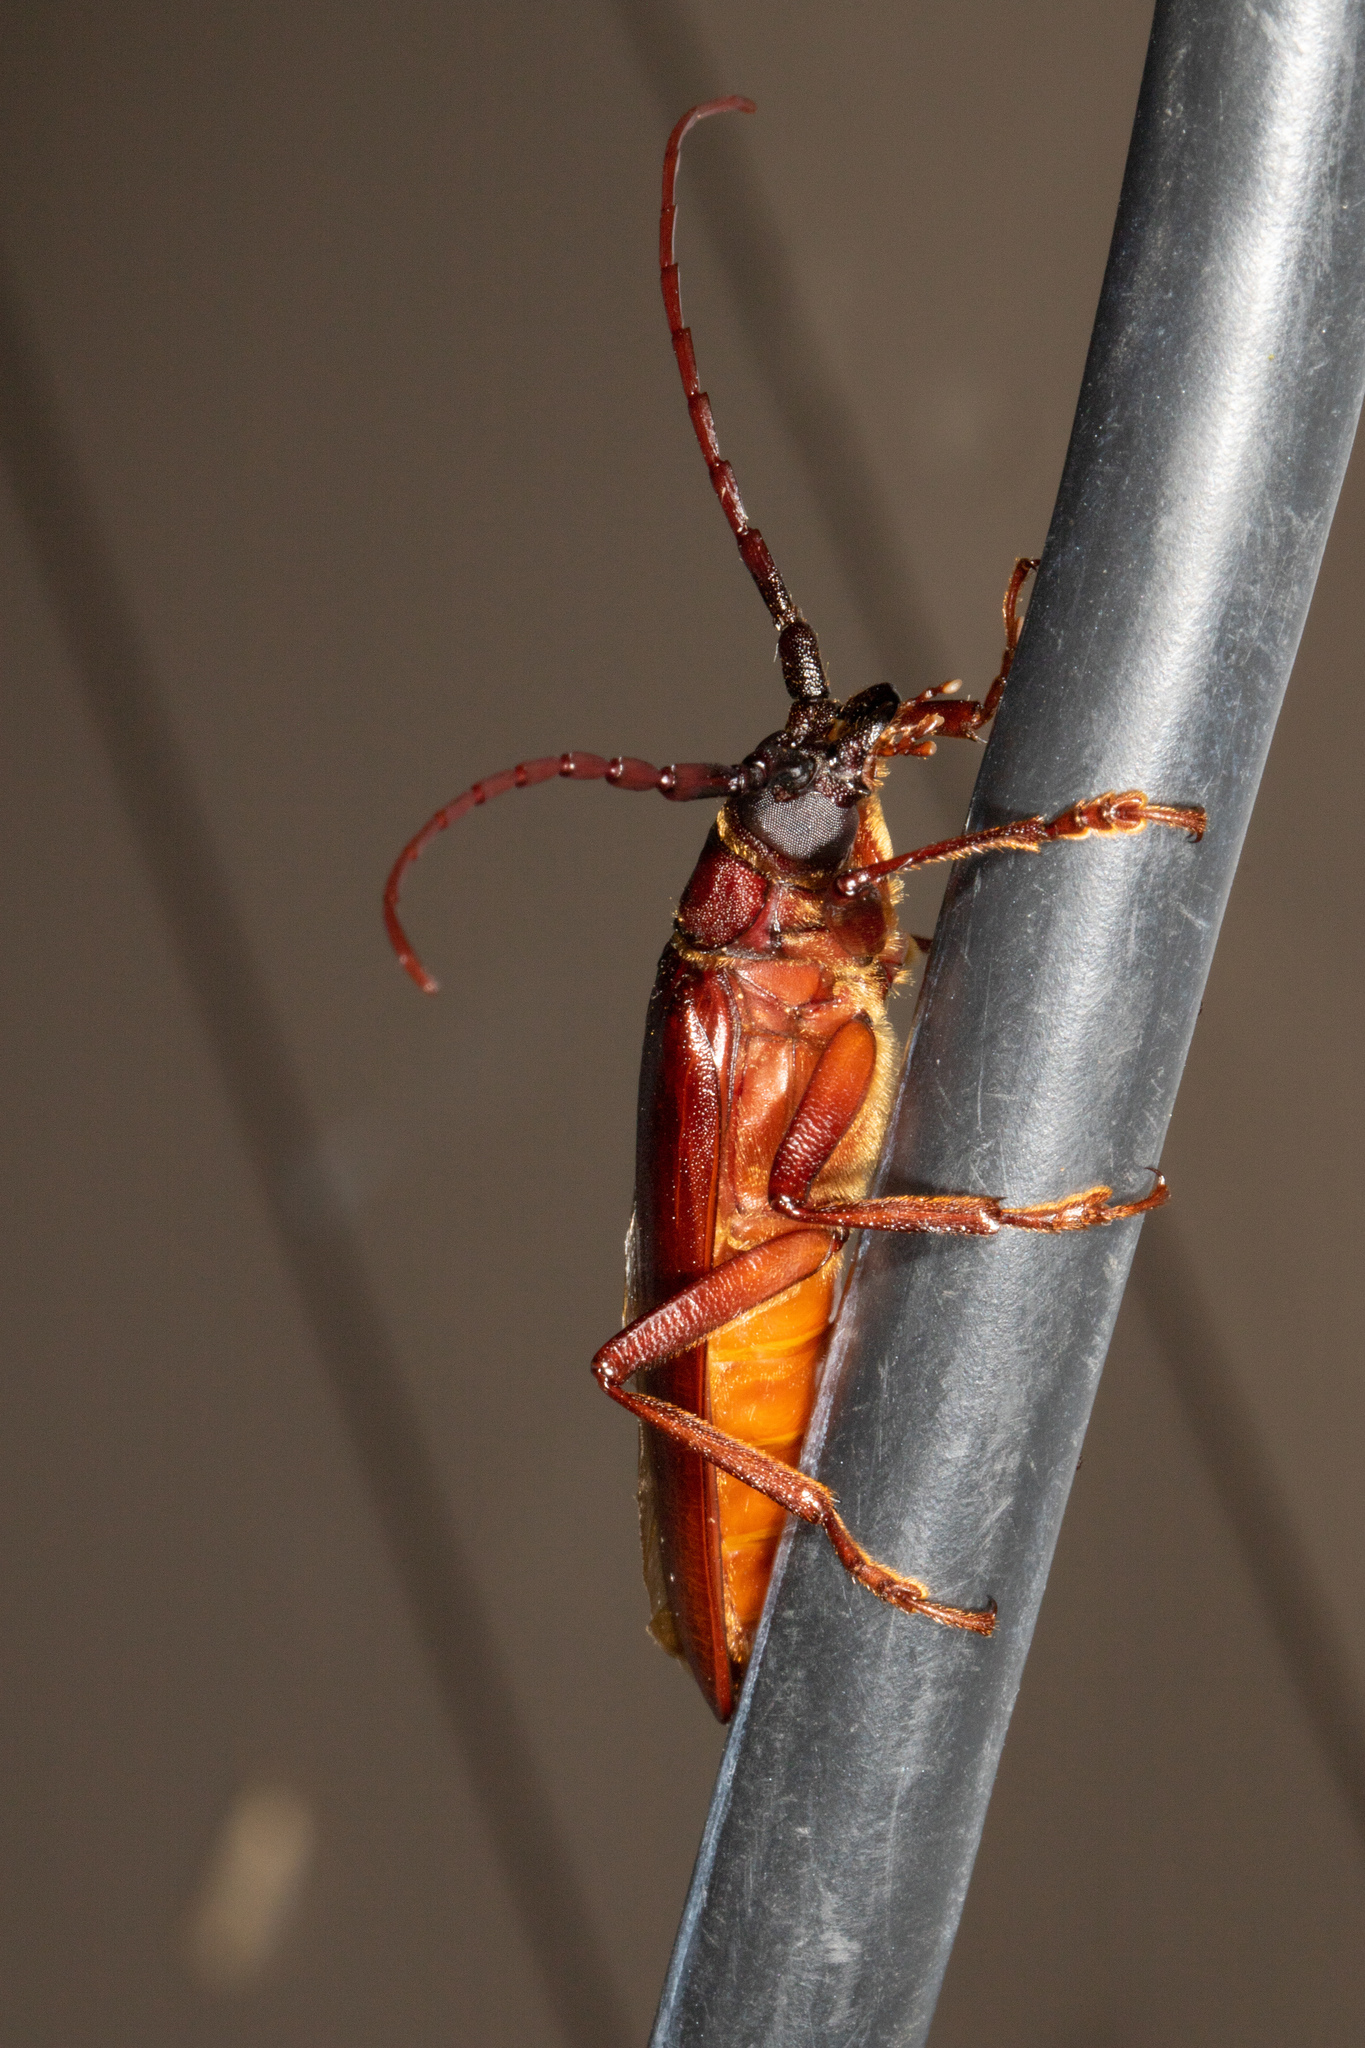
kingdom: Animalia
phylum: Arthropoda
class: Insecta
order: Coleoptera
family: Cerambycidae
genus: Orthosoma
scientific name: Orthosoma brunneum
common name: Brown prionid beetle
